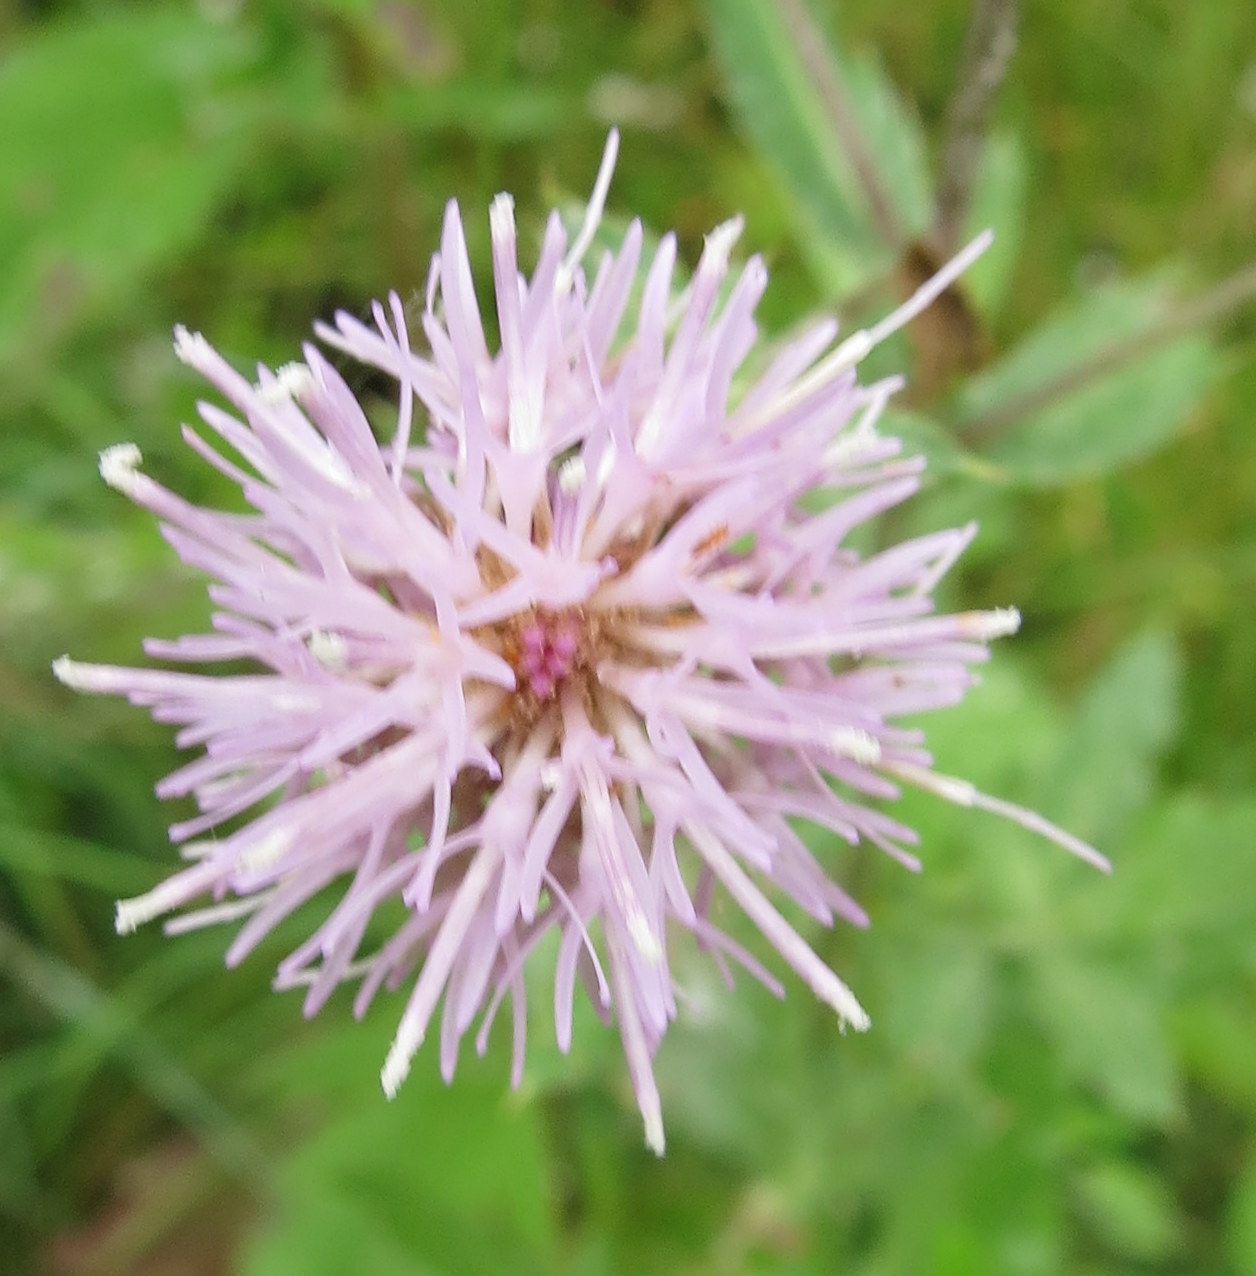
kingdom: Plantae
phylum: Tracheophyta
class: Magnoliopsida
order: Asterales
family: Asteraceae
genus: Cirsium
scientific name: Cirsium arvense
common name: Creeping thistle
